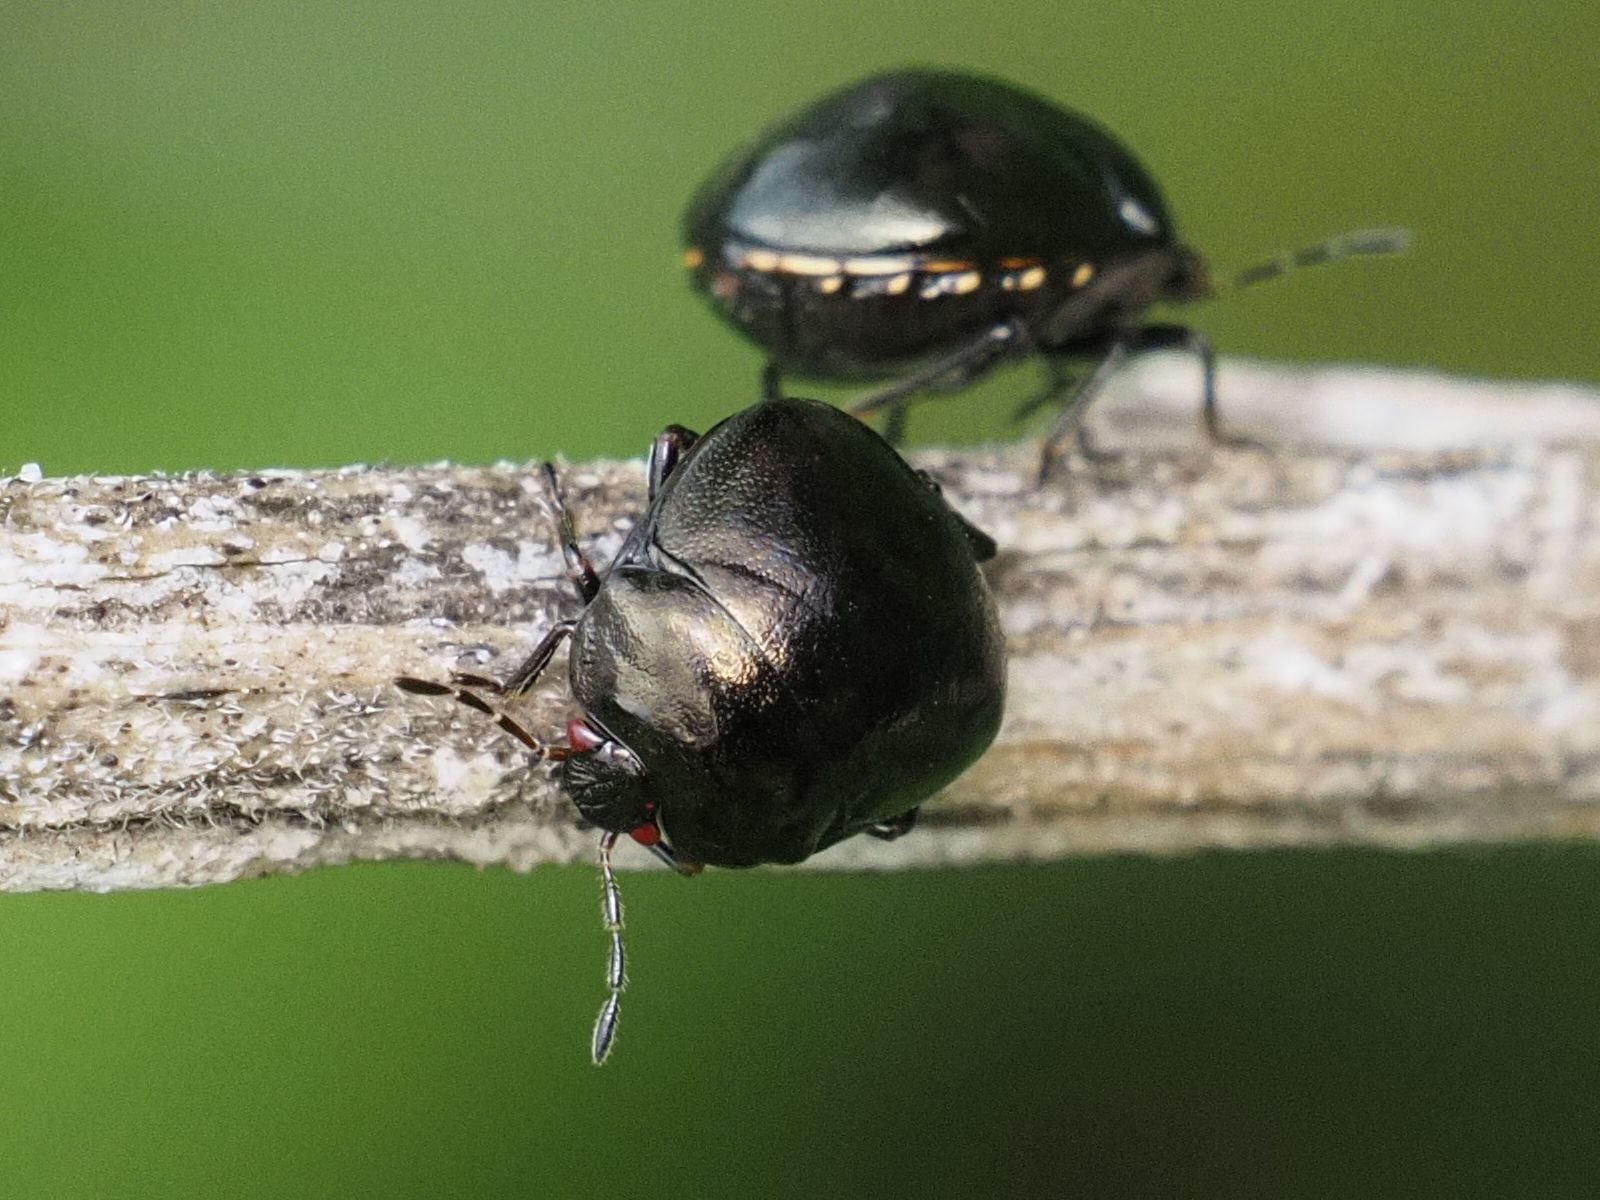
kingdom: Animalia
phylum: Arthropoda
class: Insecta
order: Hemiptera
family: Plataspidae
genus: Coptosoma
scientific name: Coptosoma scutellatum
